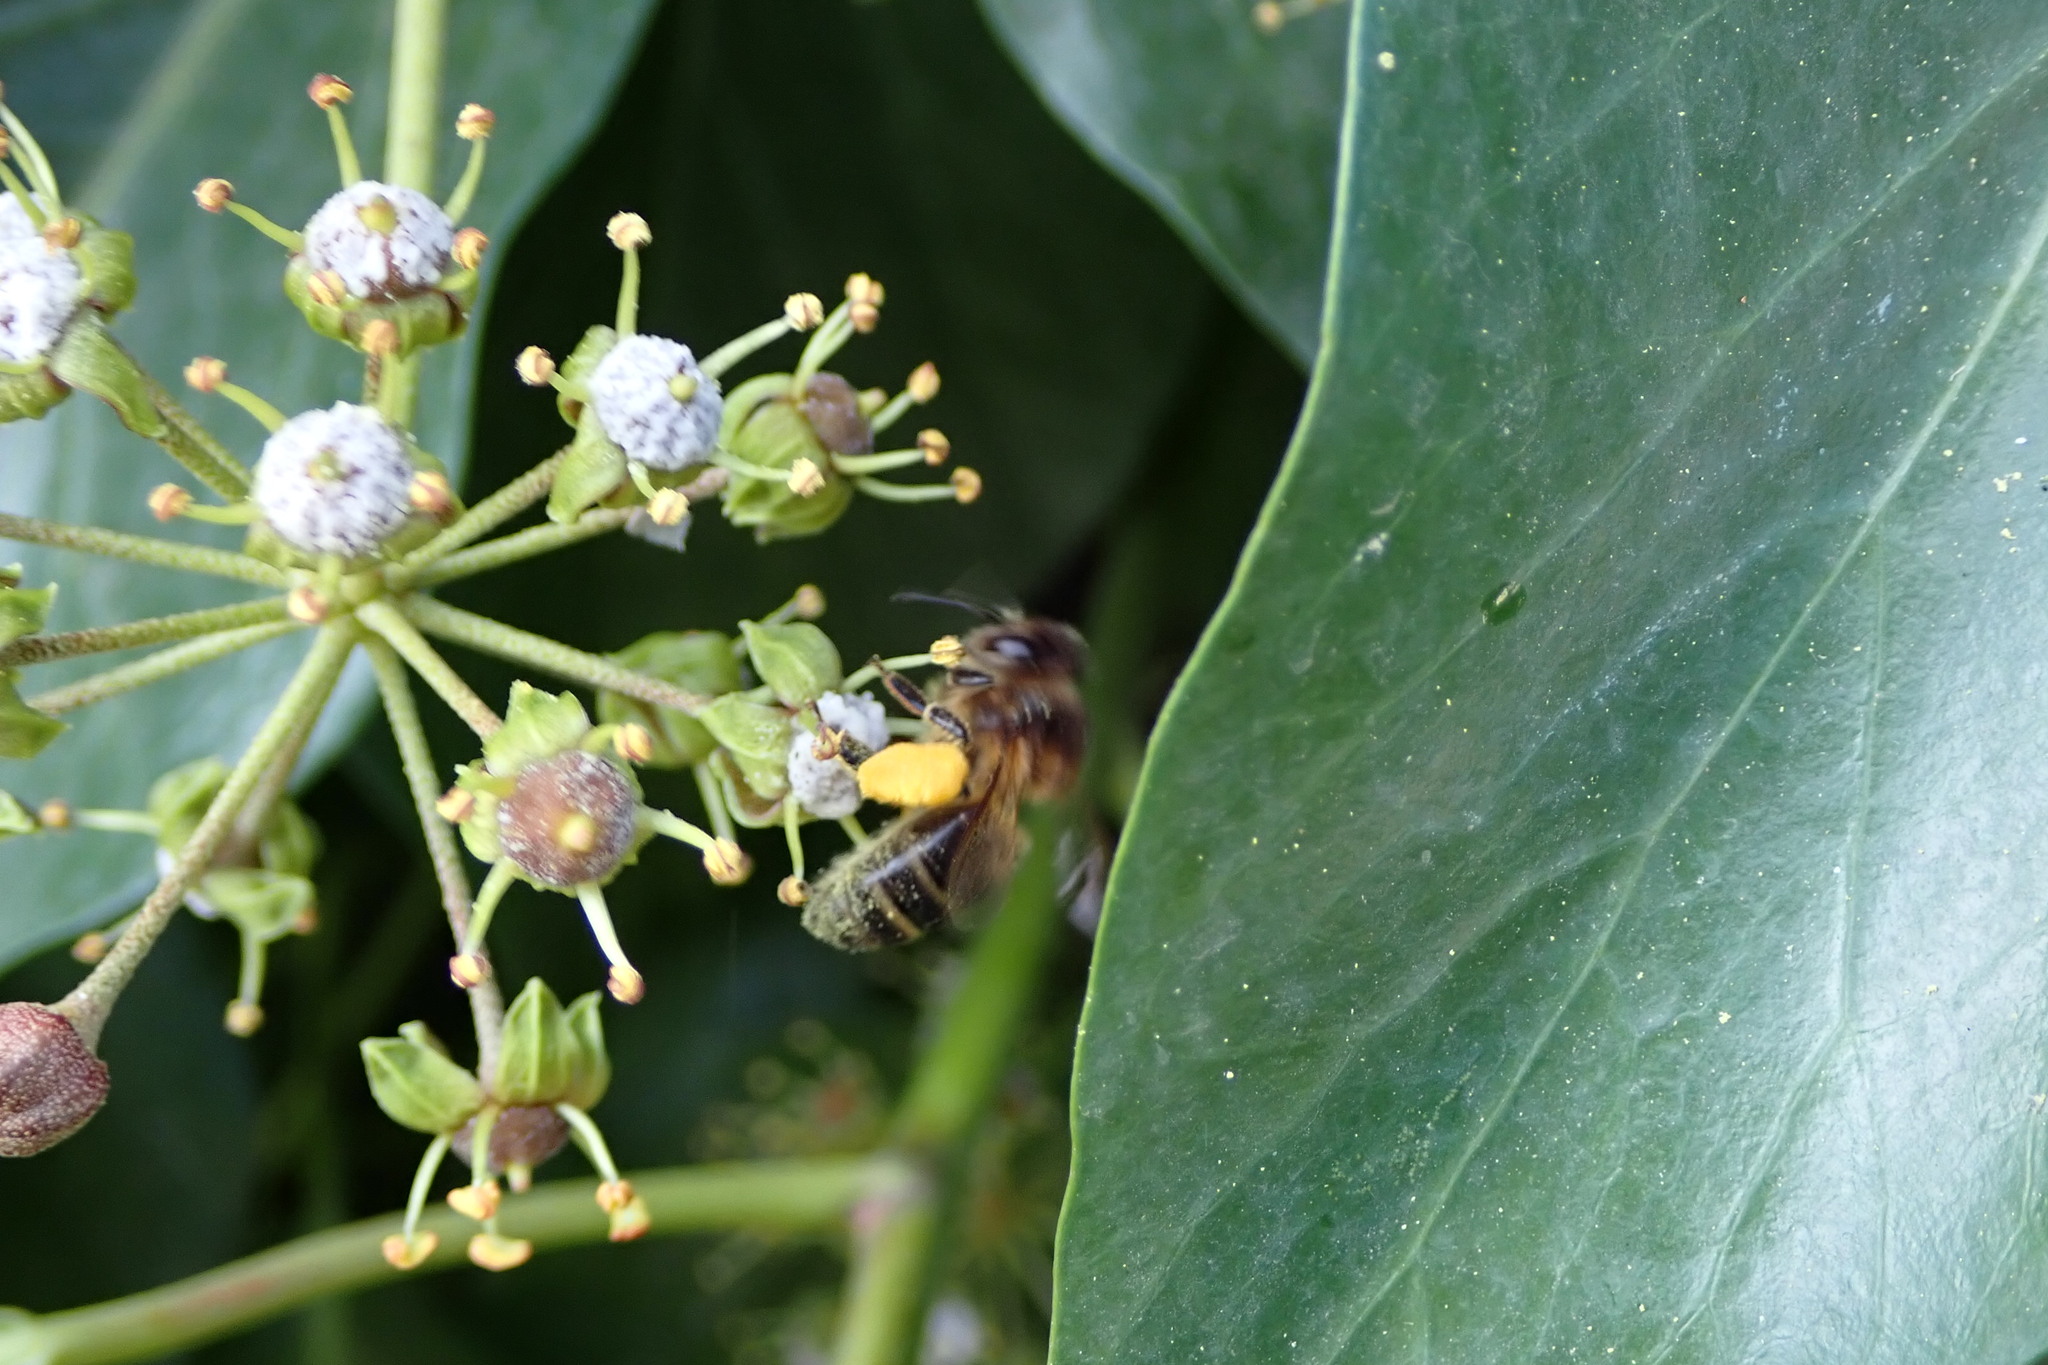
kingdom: Animalia
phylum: Arthropoda
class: Insecta
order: Hymenoptera
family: Apidae
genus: Apis
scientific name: Apis mellifera
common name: Honey bee
